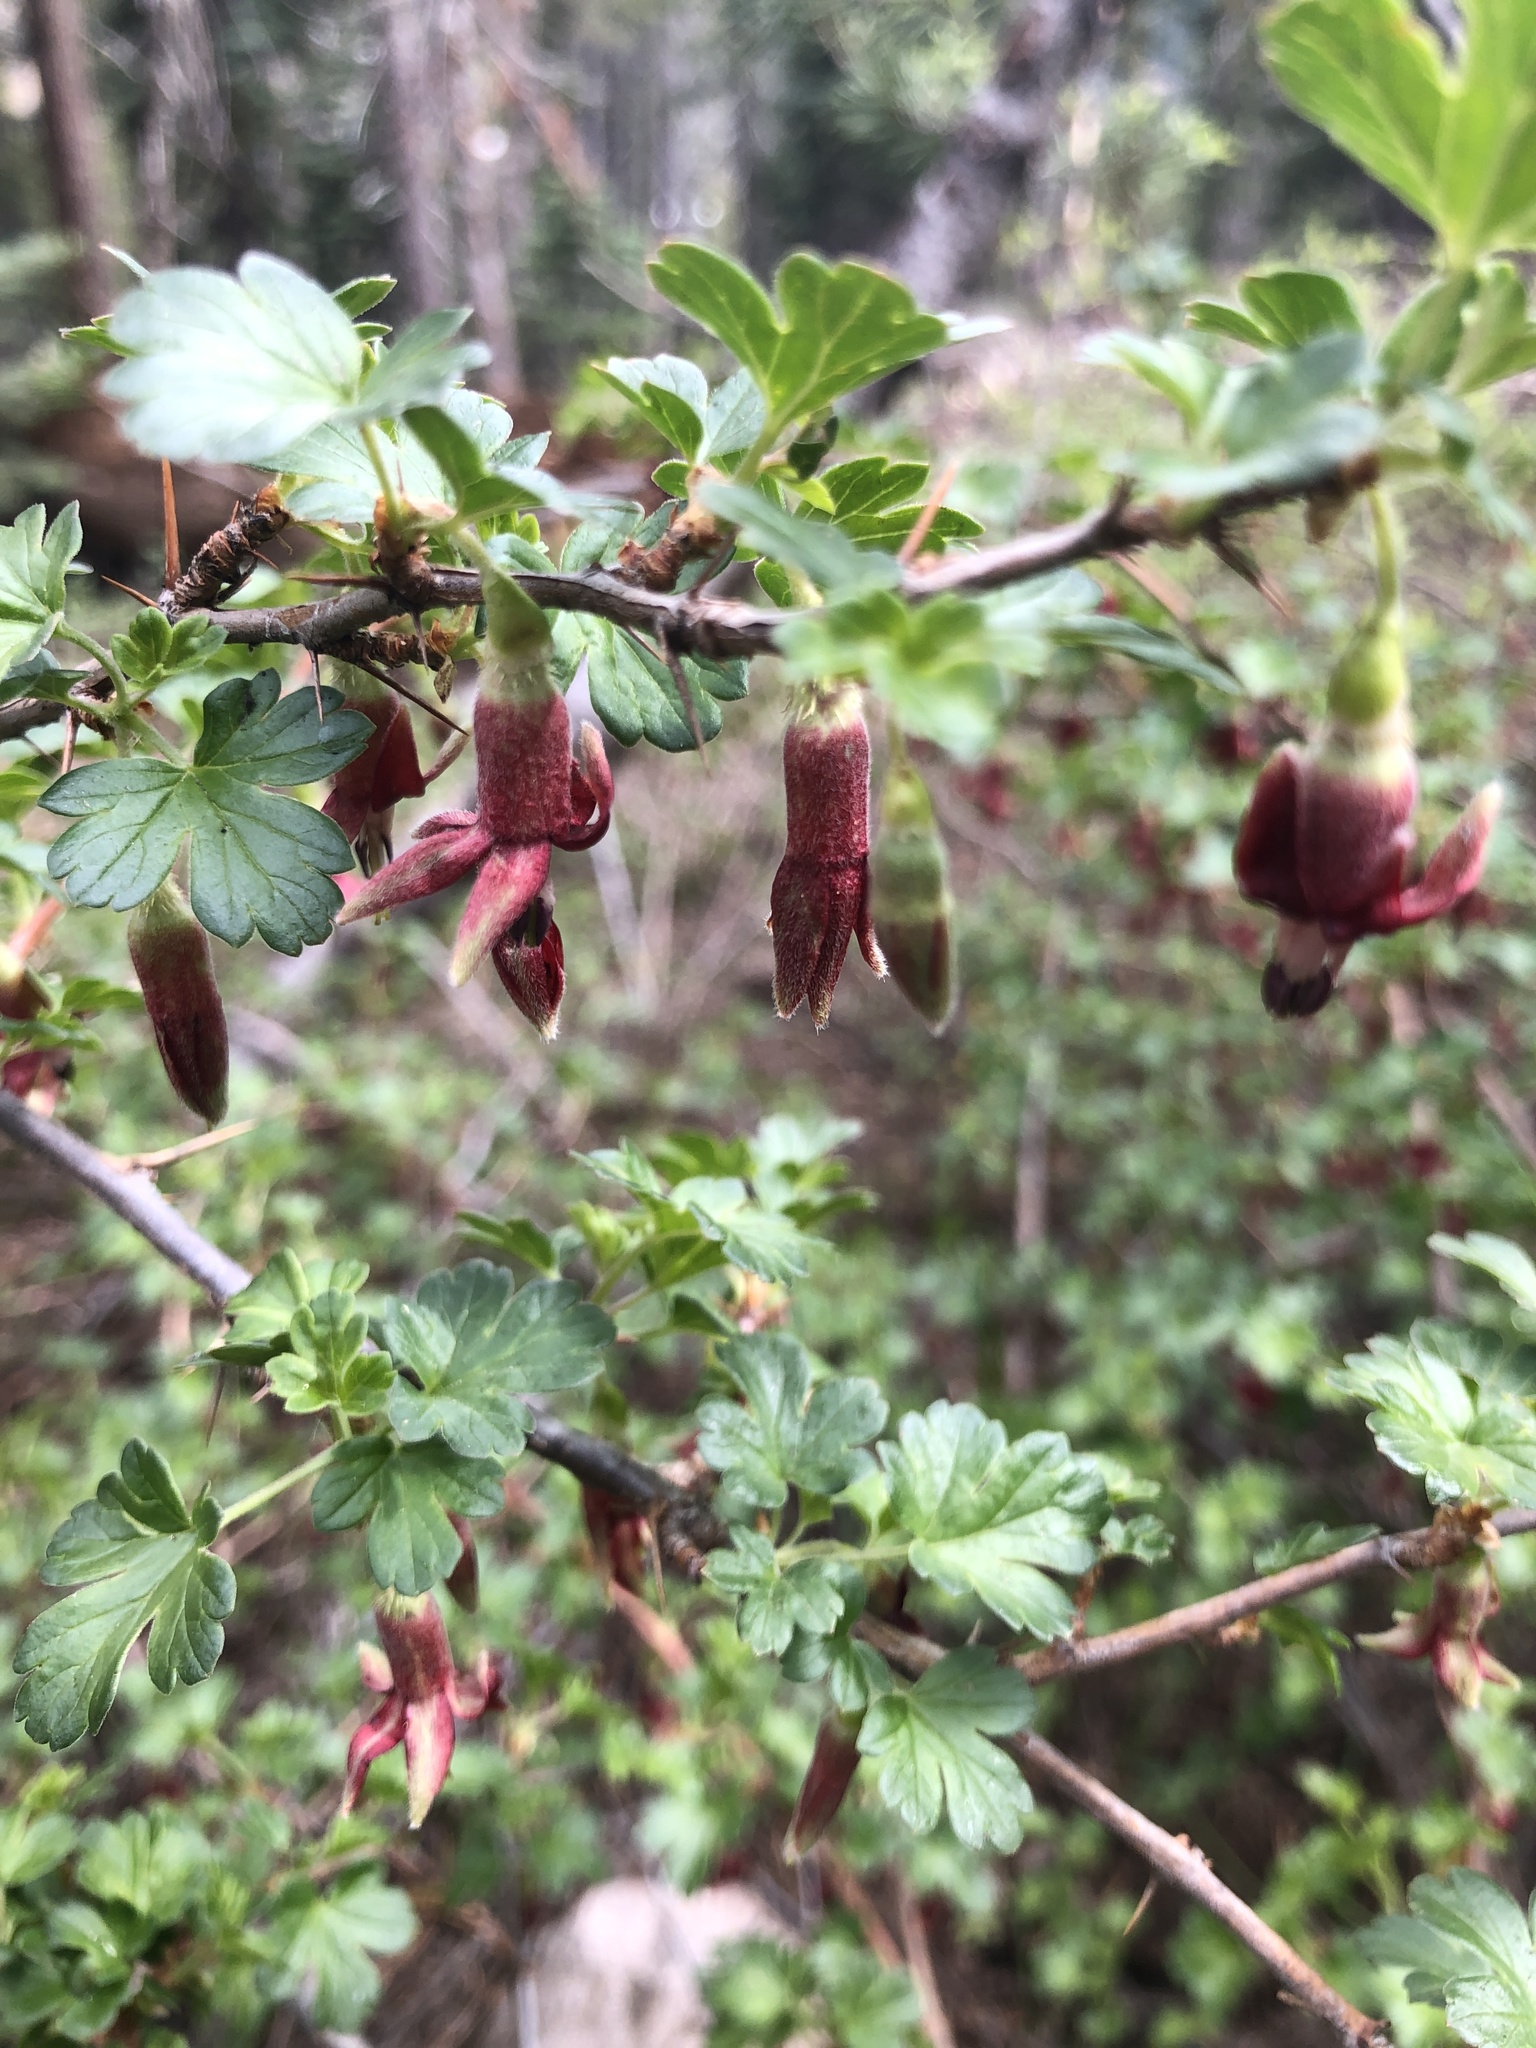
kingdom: Plantae
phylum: Tracheophyta
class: Magnoliopsida
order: Saxifragales
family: Grossulariaceae
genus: Ribes
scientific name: Ribes roezlii
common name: Sierra gooseberry
